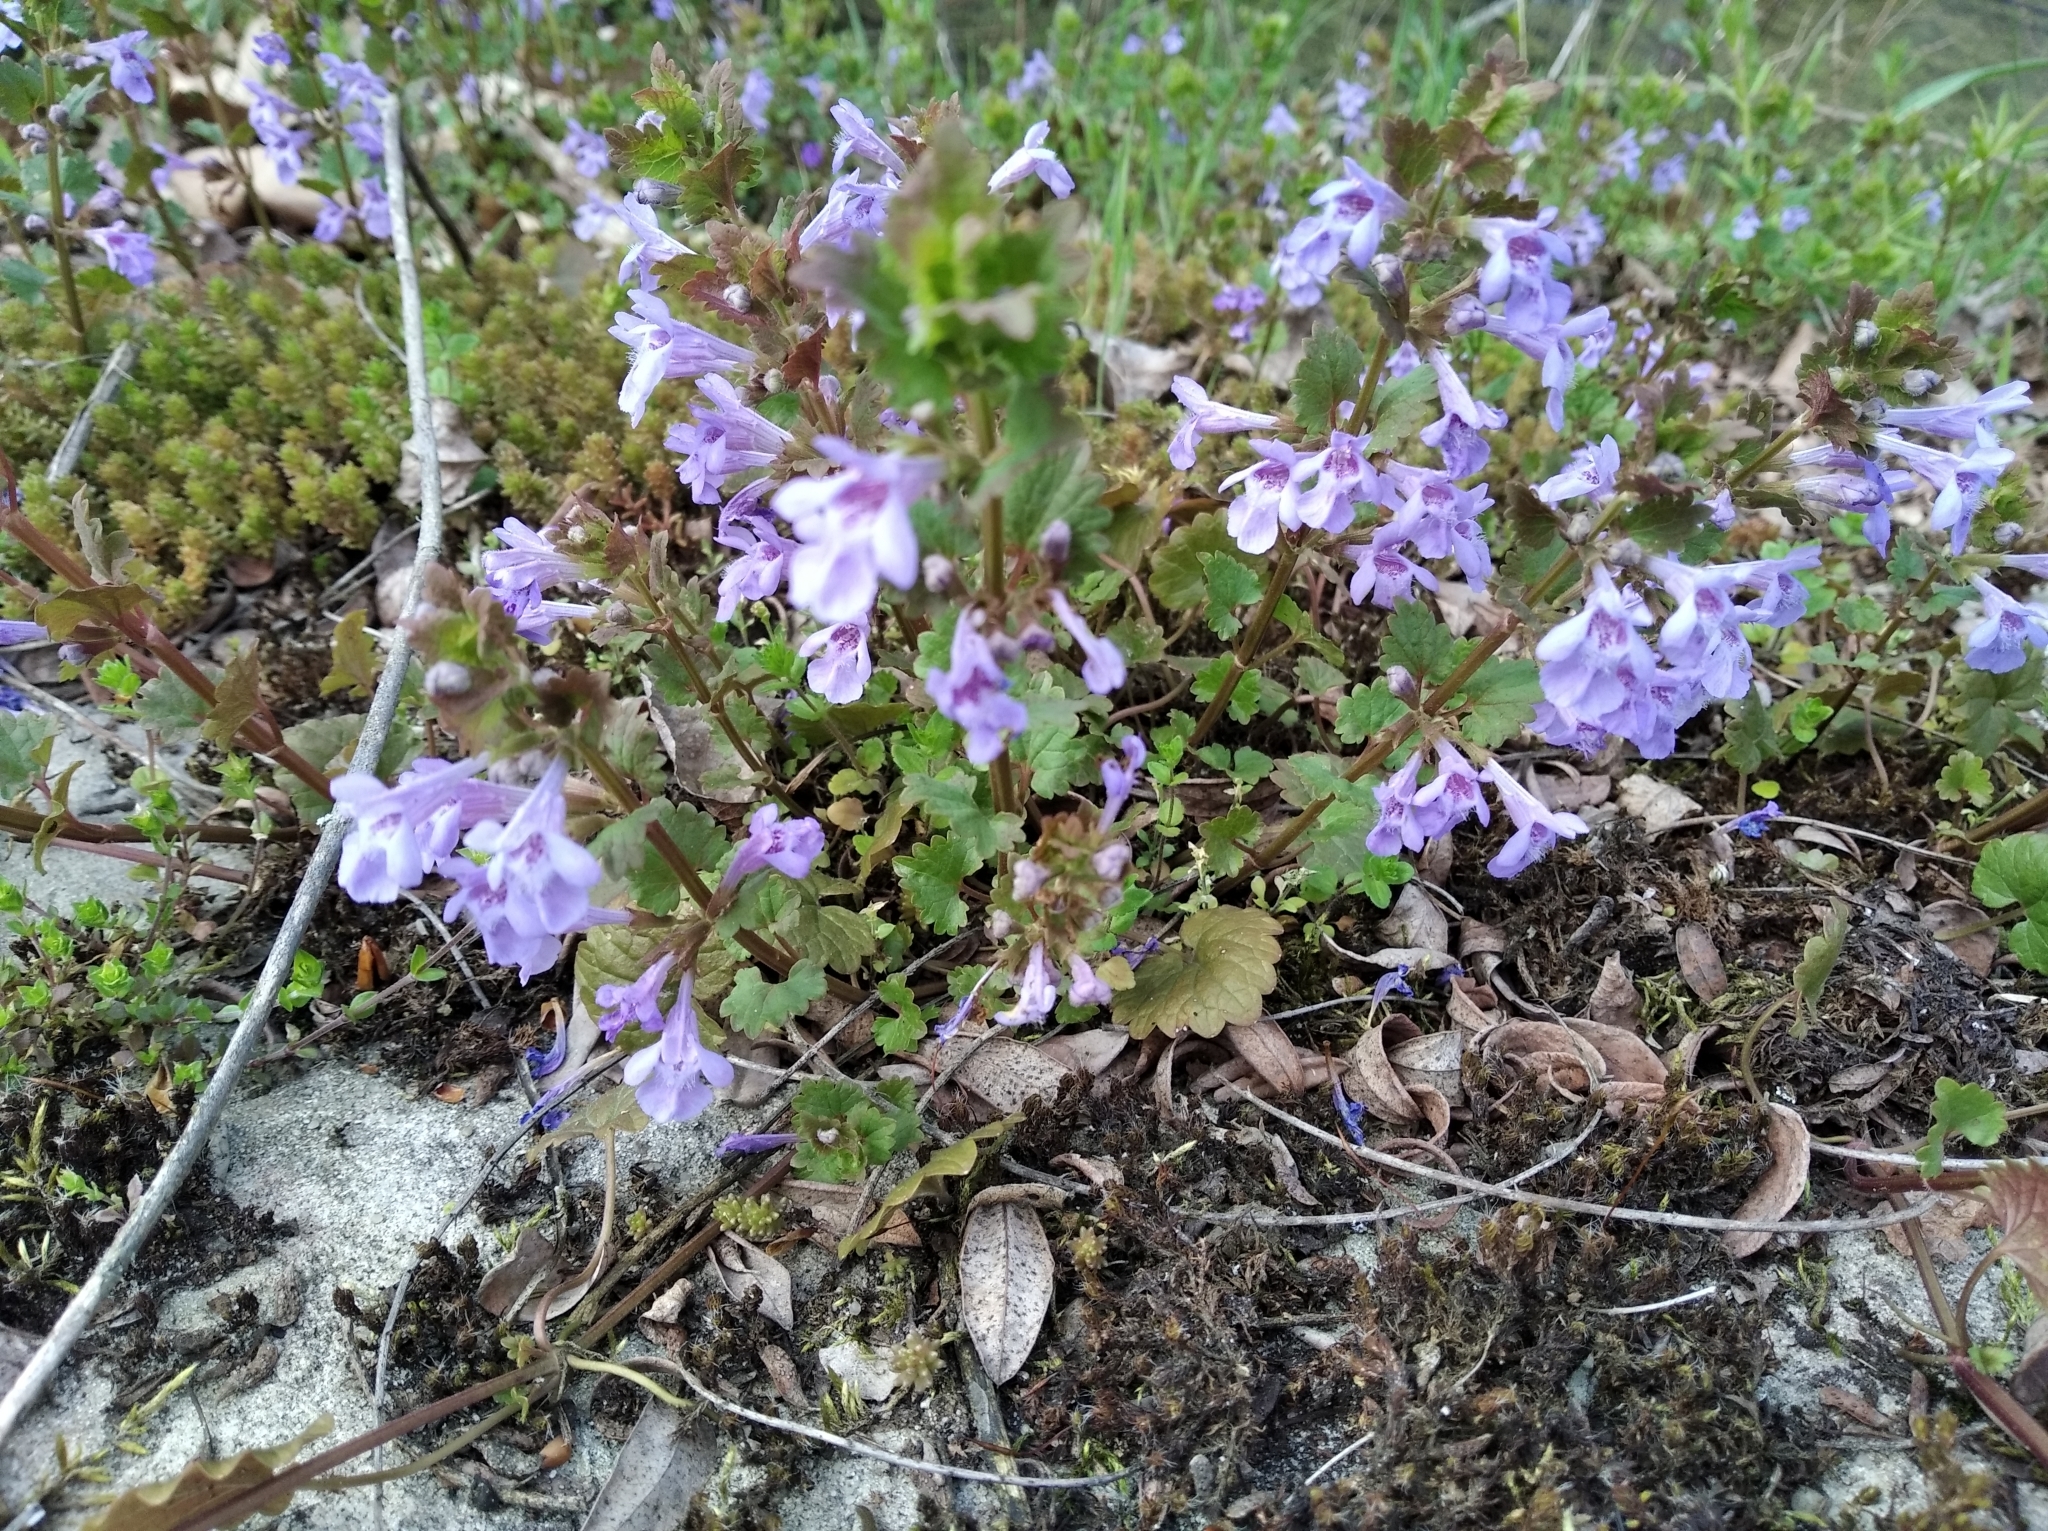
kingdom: Plantae
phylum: Tracheophyta
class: Magnoliopsida
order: Lamiales
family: Lamiaceae
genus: Glechoma
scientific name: Glechoma hederacea
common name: Ground ivy
